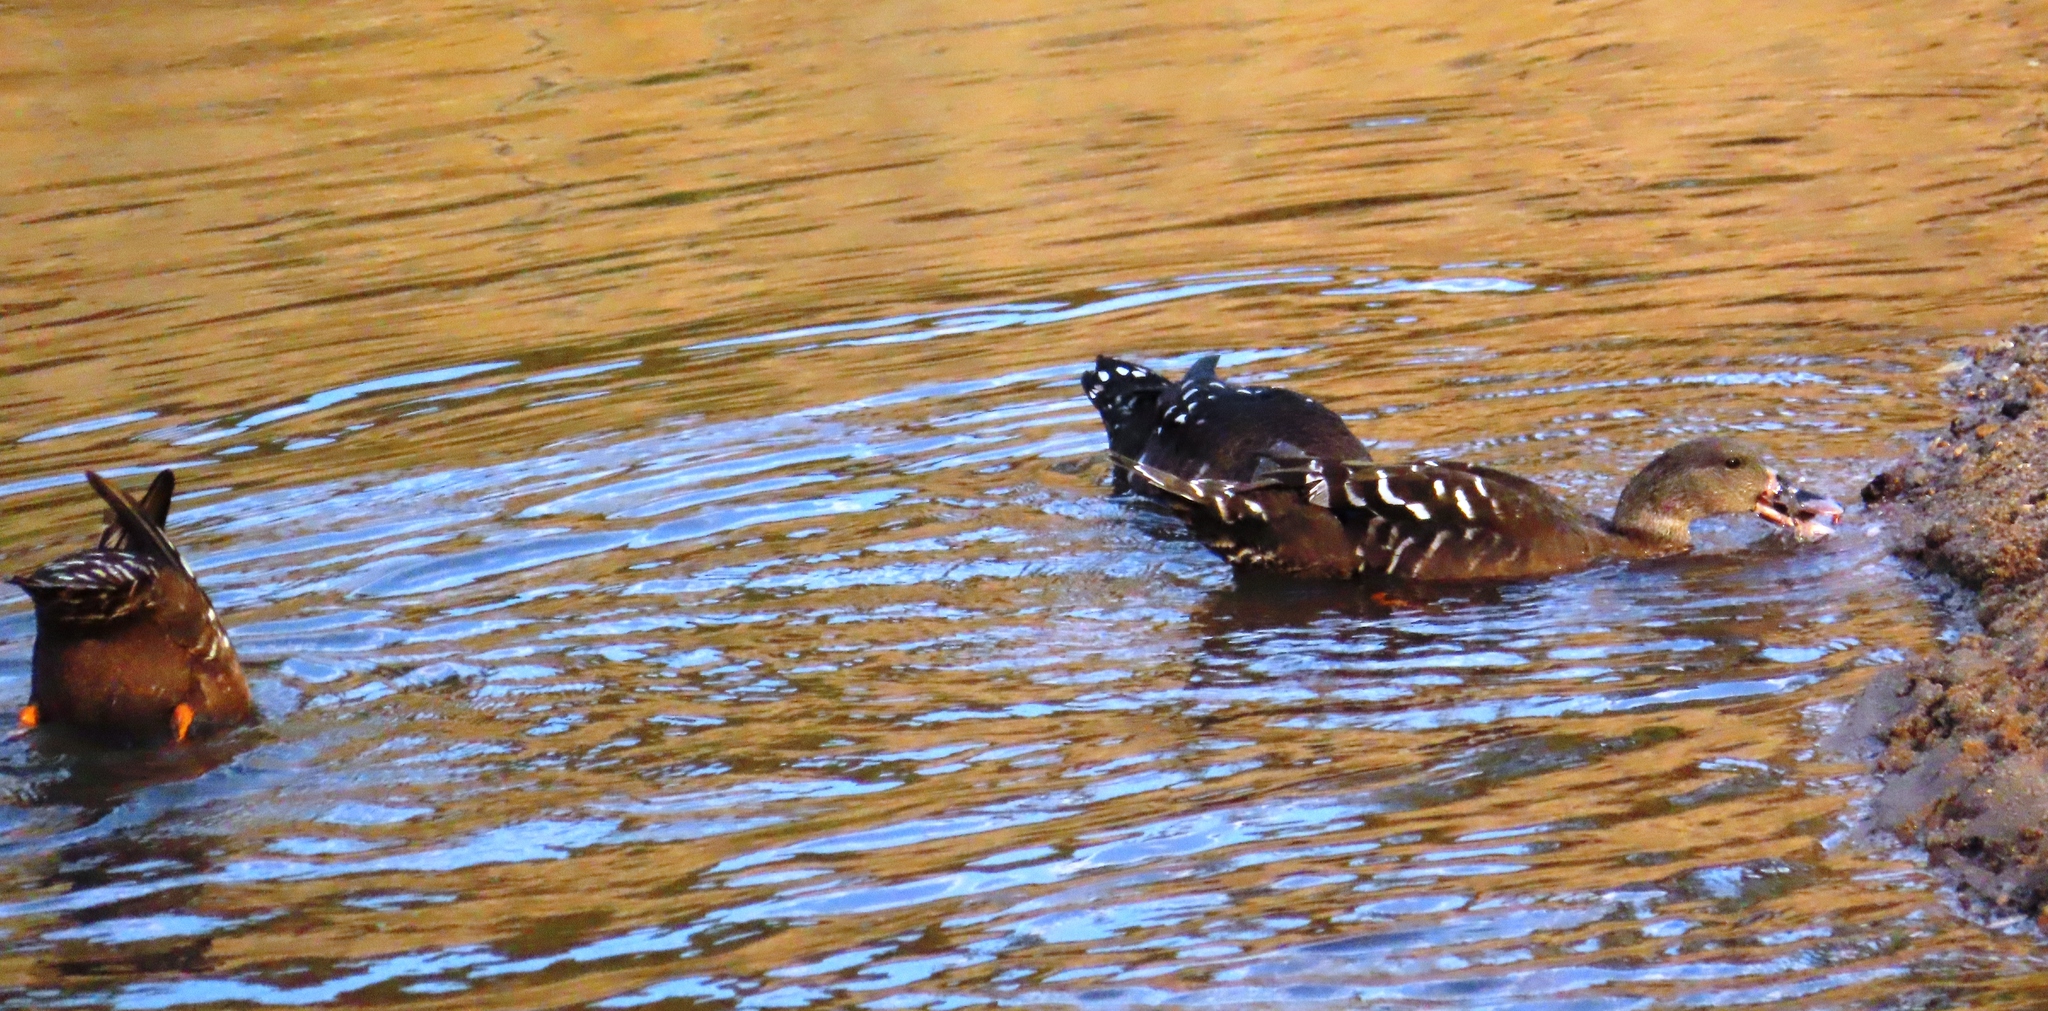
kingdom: Animalia
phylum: Chordata
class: Aves
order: Anseriformes
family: Anatidae
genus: Anas
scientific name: Anas sparsa
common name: African black duck
